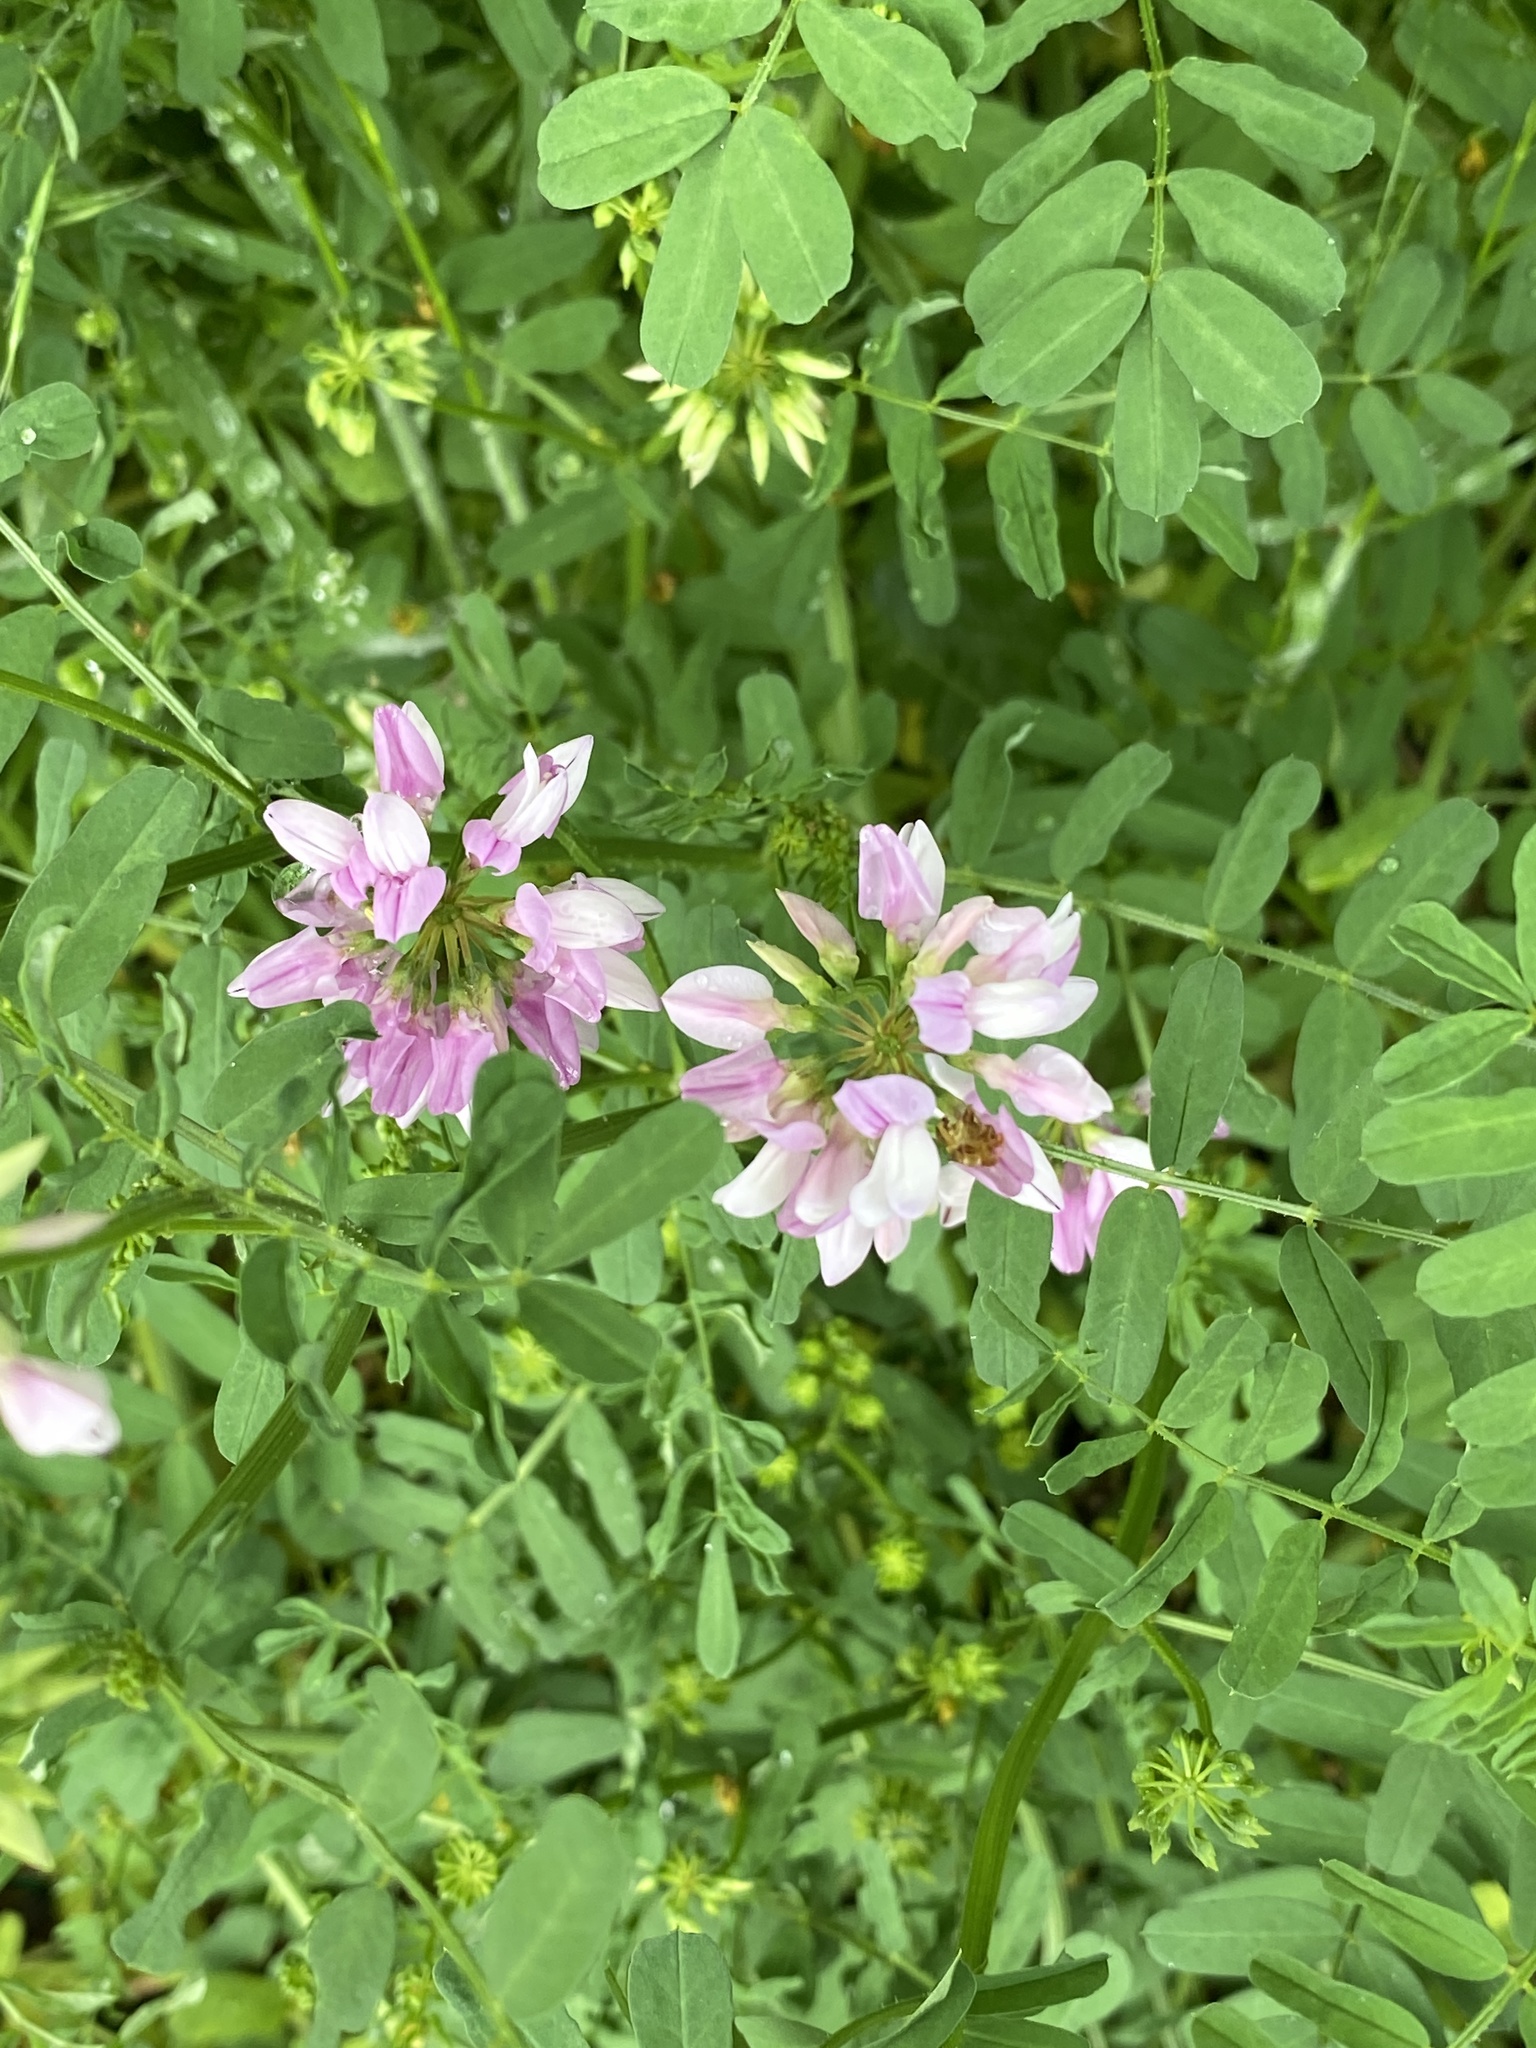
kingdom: Plantae
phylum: Tracheophyta
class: Magnoliopsida
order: Fabales
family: Fabaceae
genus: Coronilla
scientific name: Coronilla varia
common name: Crownvetch
